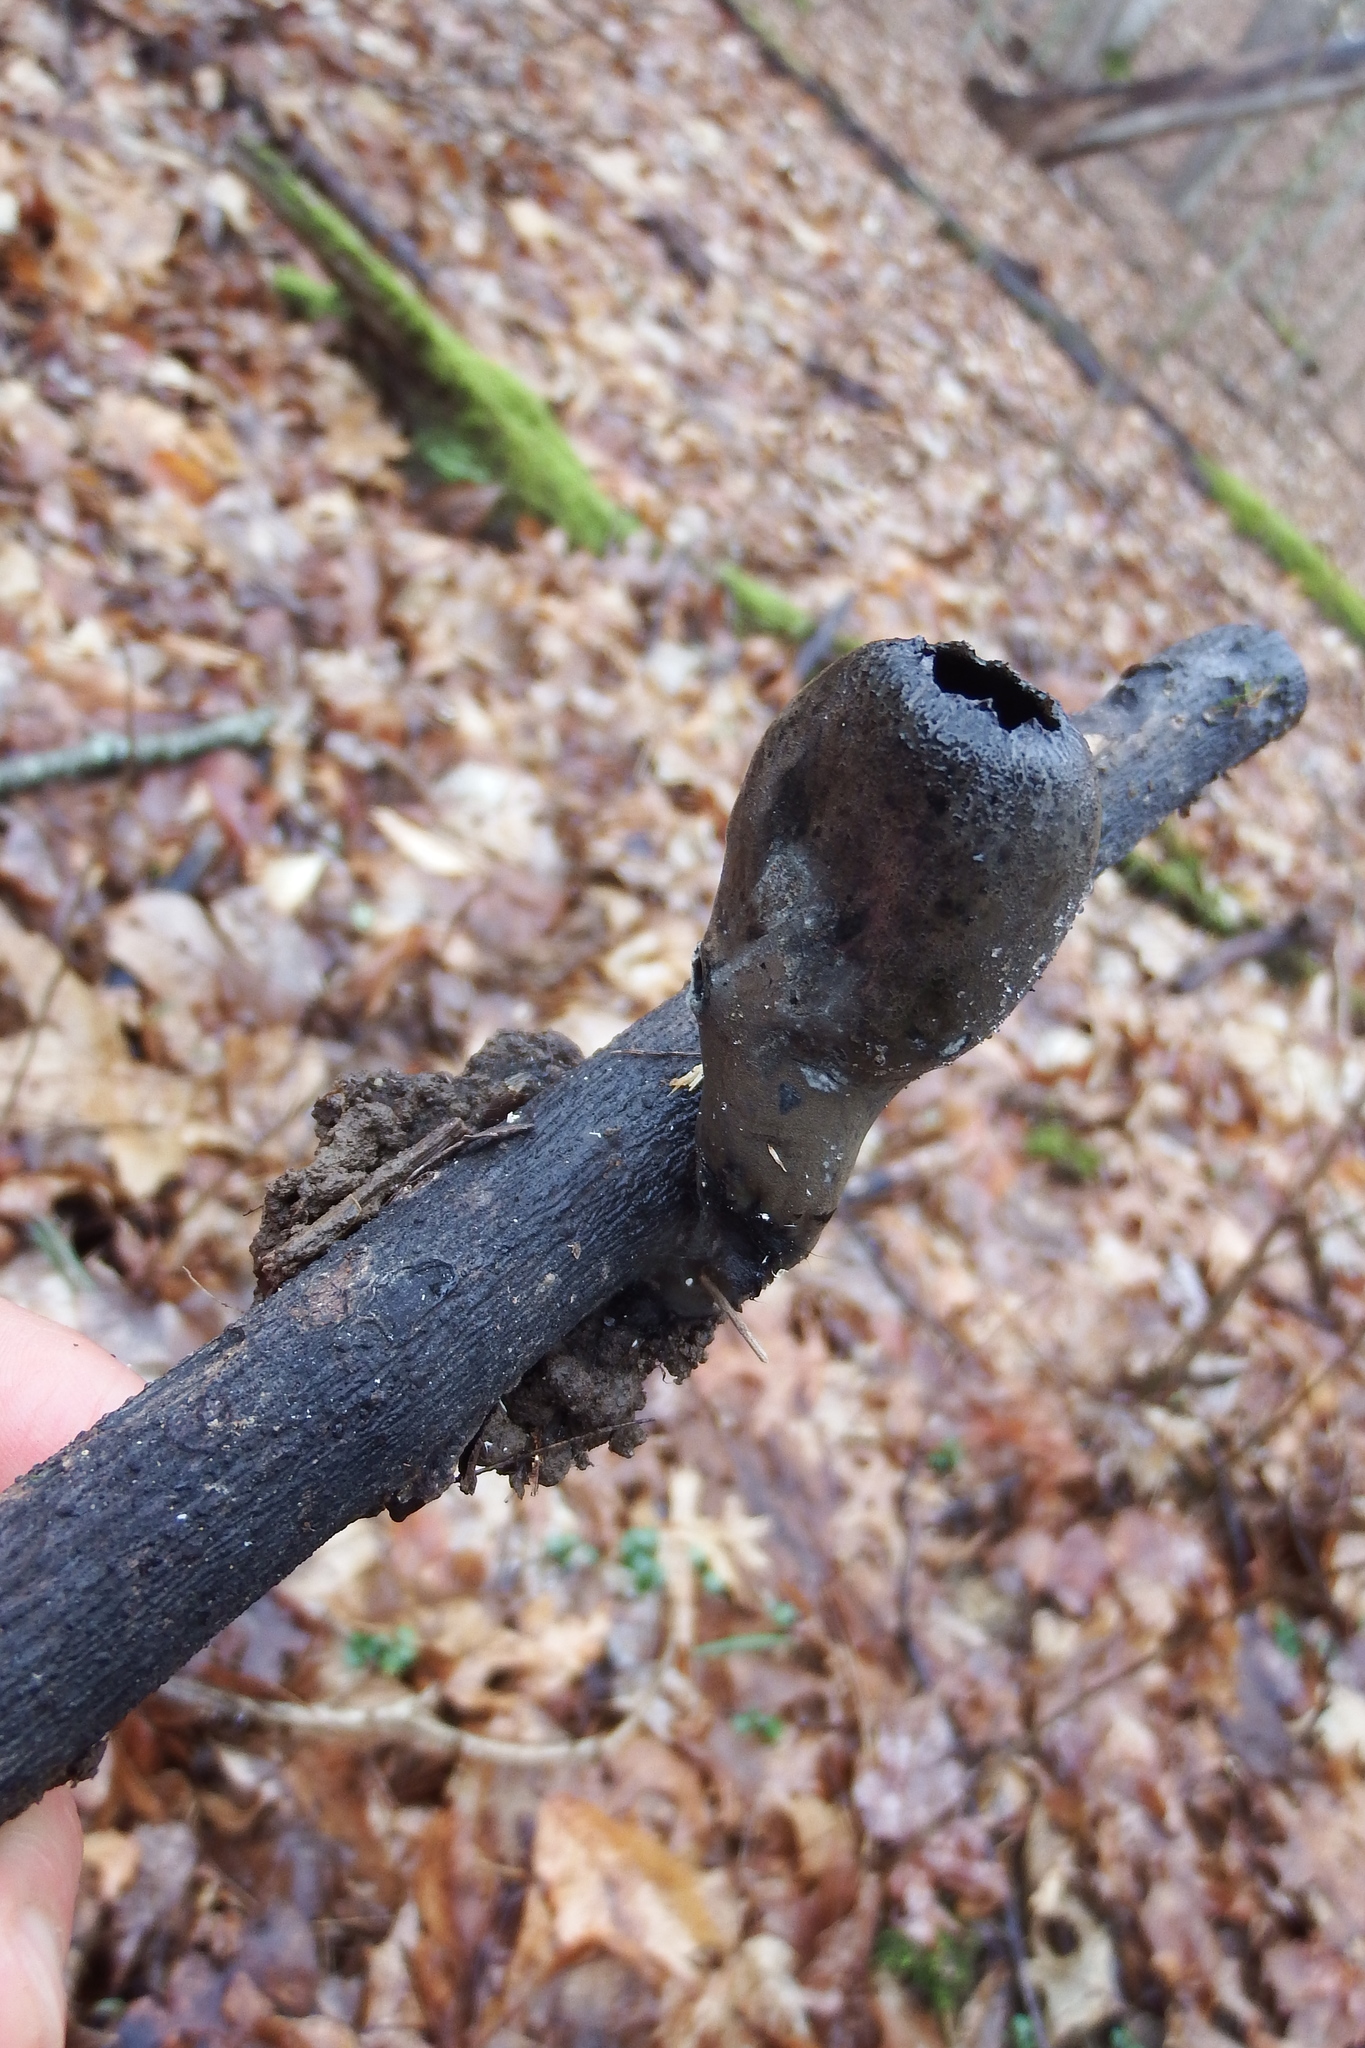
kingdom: Fungi
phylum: Ascomycota
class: Pezizomycetes
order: Pezizales
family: Sarcosomataceae
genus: Urnula
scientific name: Urnula craterium
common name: Devil's urn
